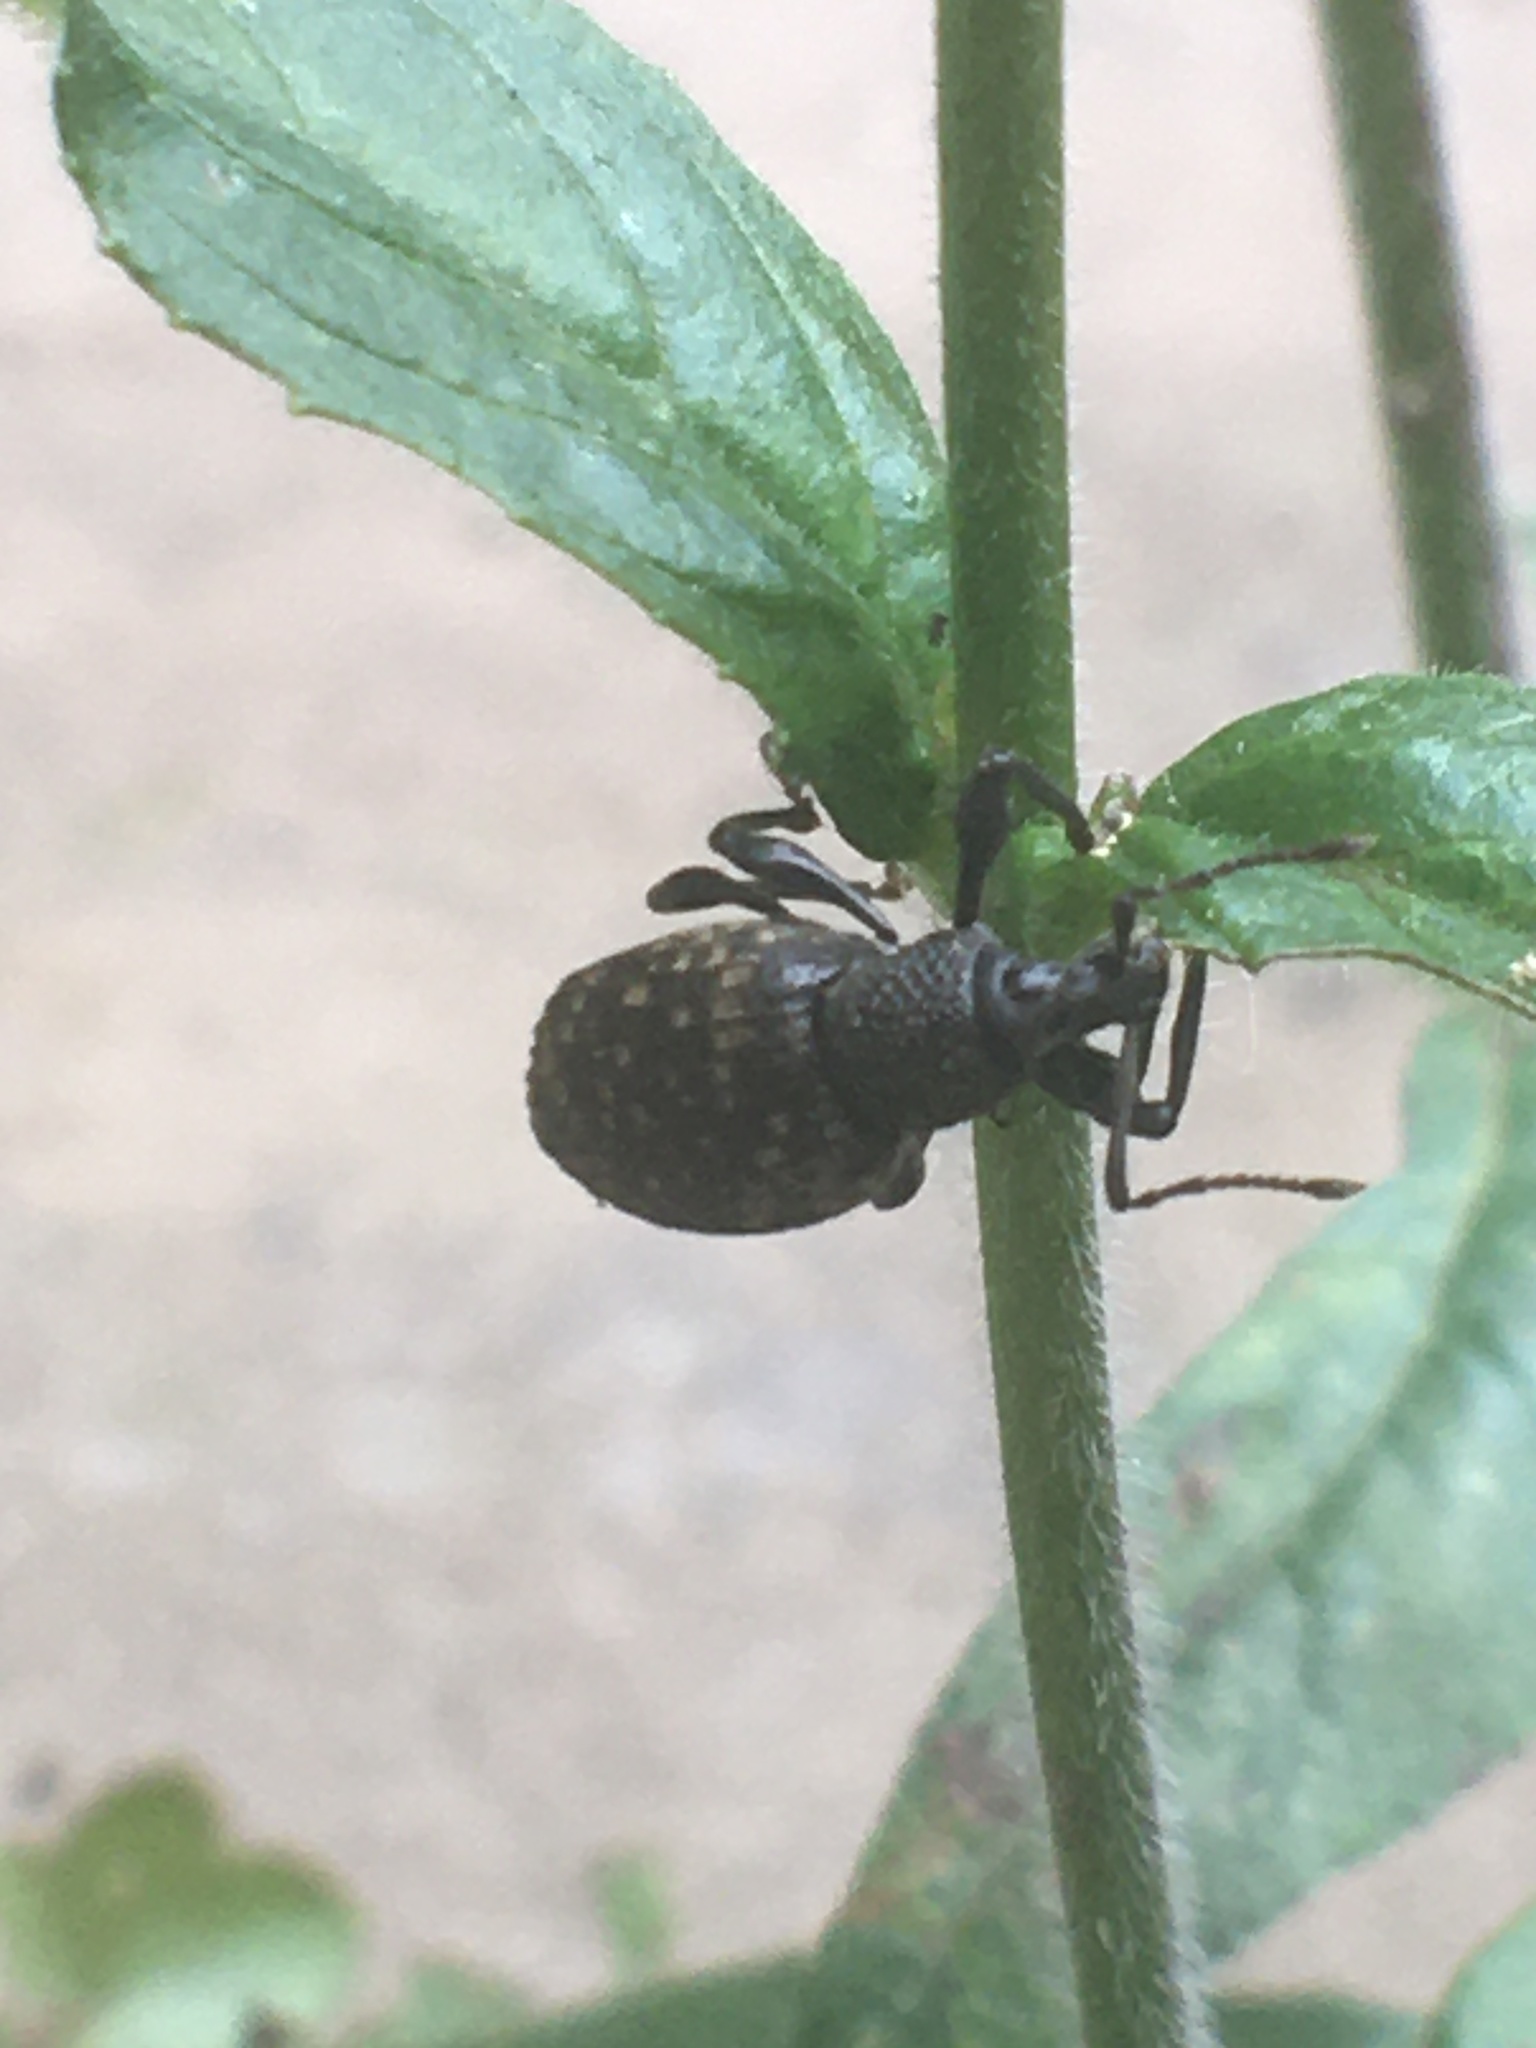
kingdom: Animalia
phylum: Arthropoda
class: Insecta
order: Coleoptera
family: Curculionidae
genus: Otiorhynchus
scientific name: Otiorhynchus sulcatus
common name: Black vine weevil
